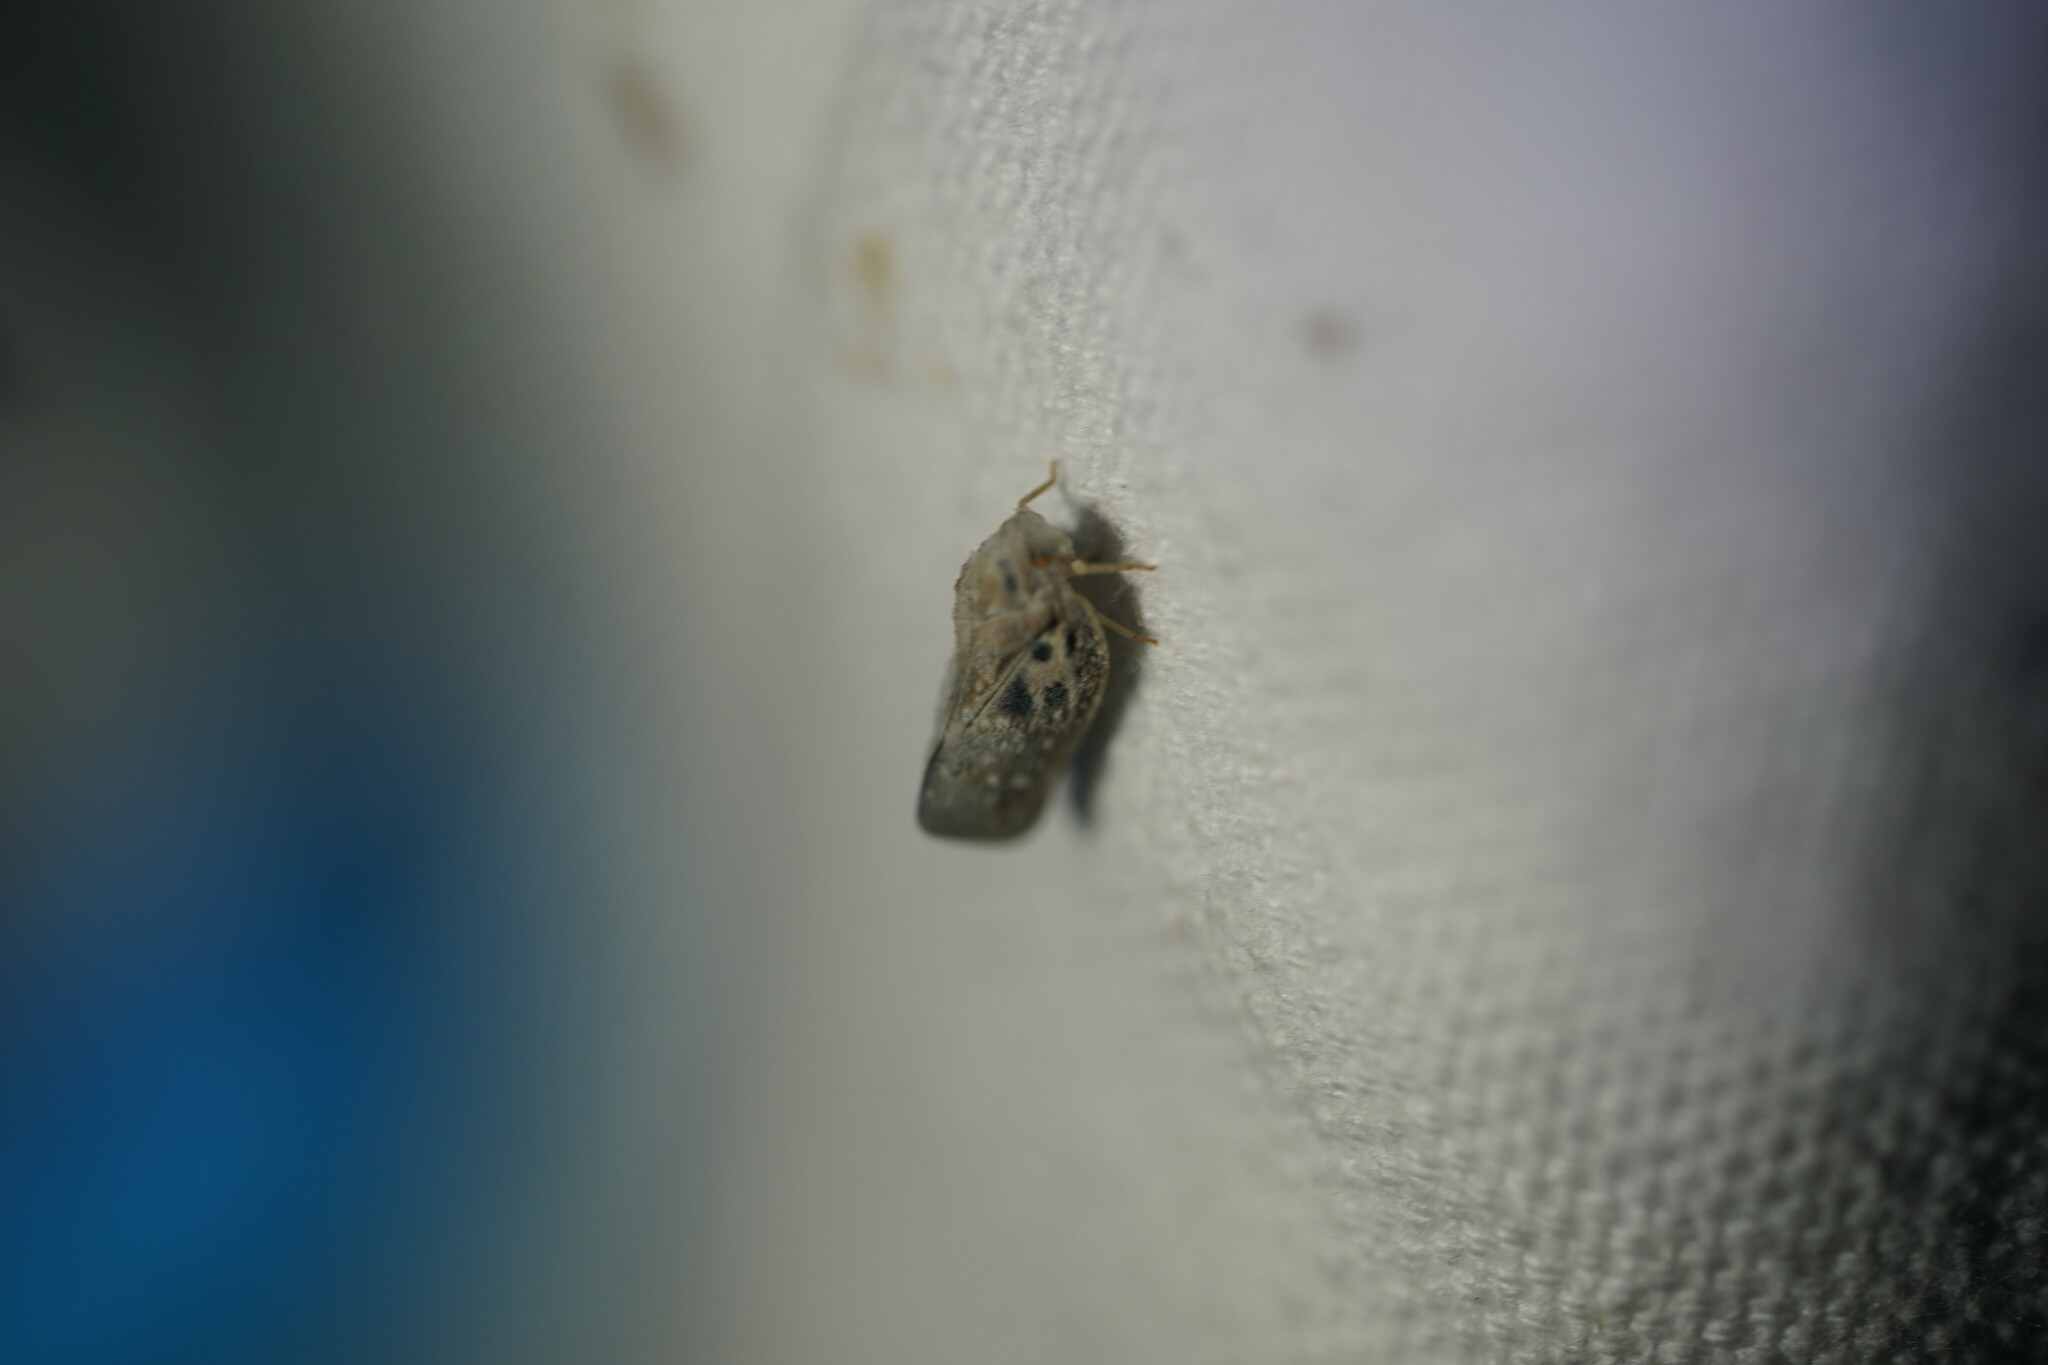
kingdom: Animalia
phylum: Arthropoda
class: Insecta
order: Hemiptera
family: Flatidae
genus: Metcalfa
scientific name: Metcalfa pruinosa
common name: Citrus flatid planthopper
